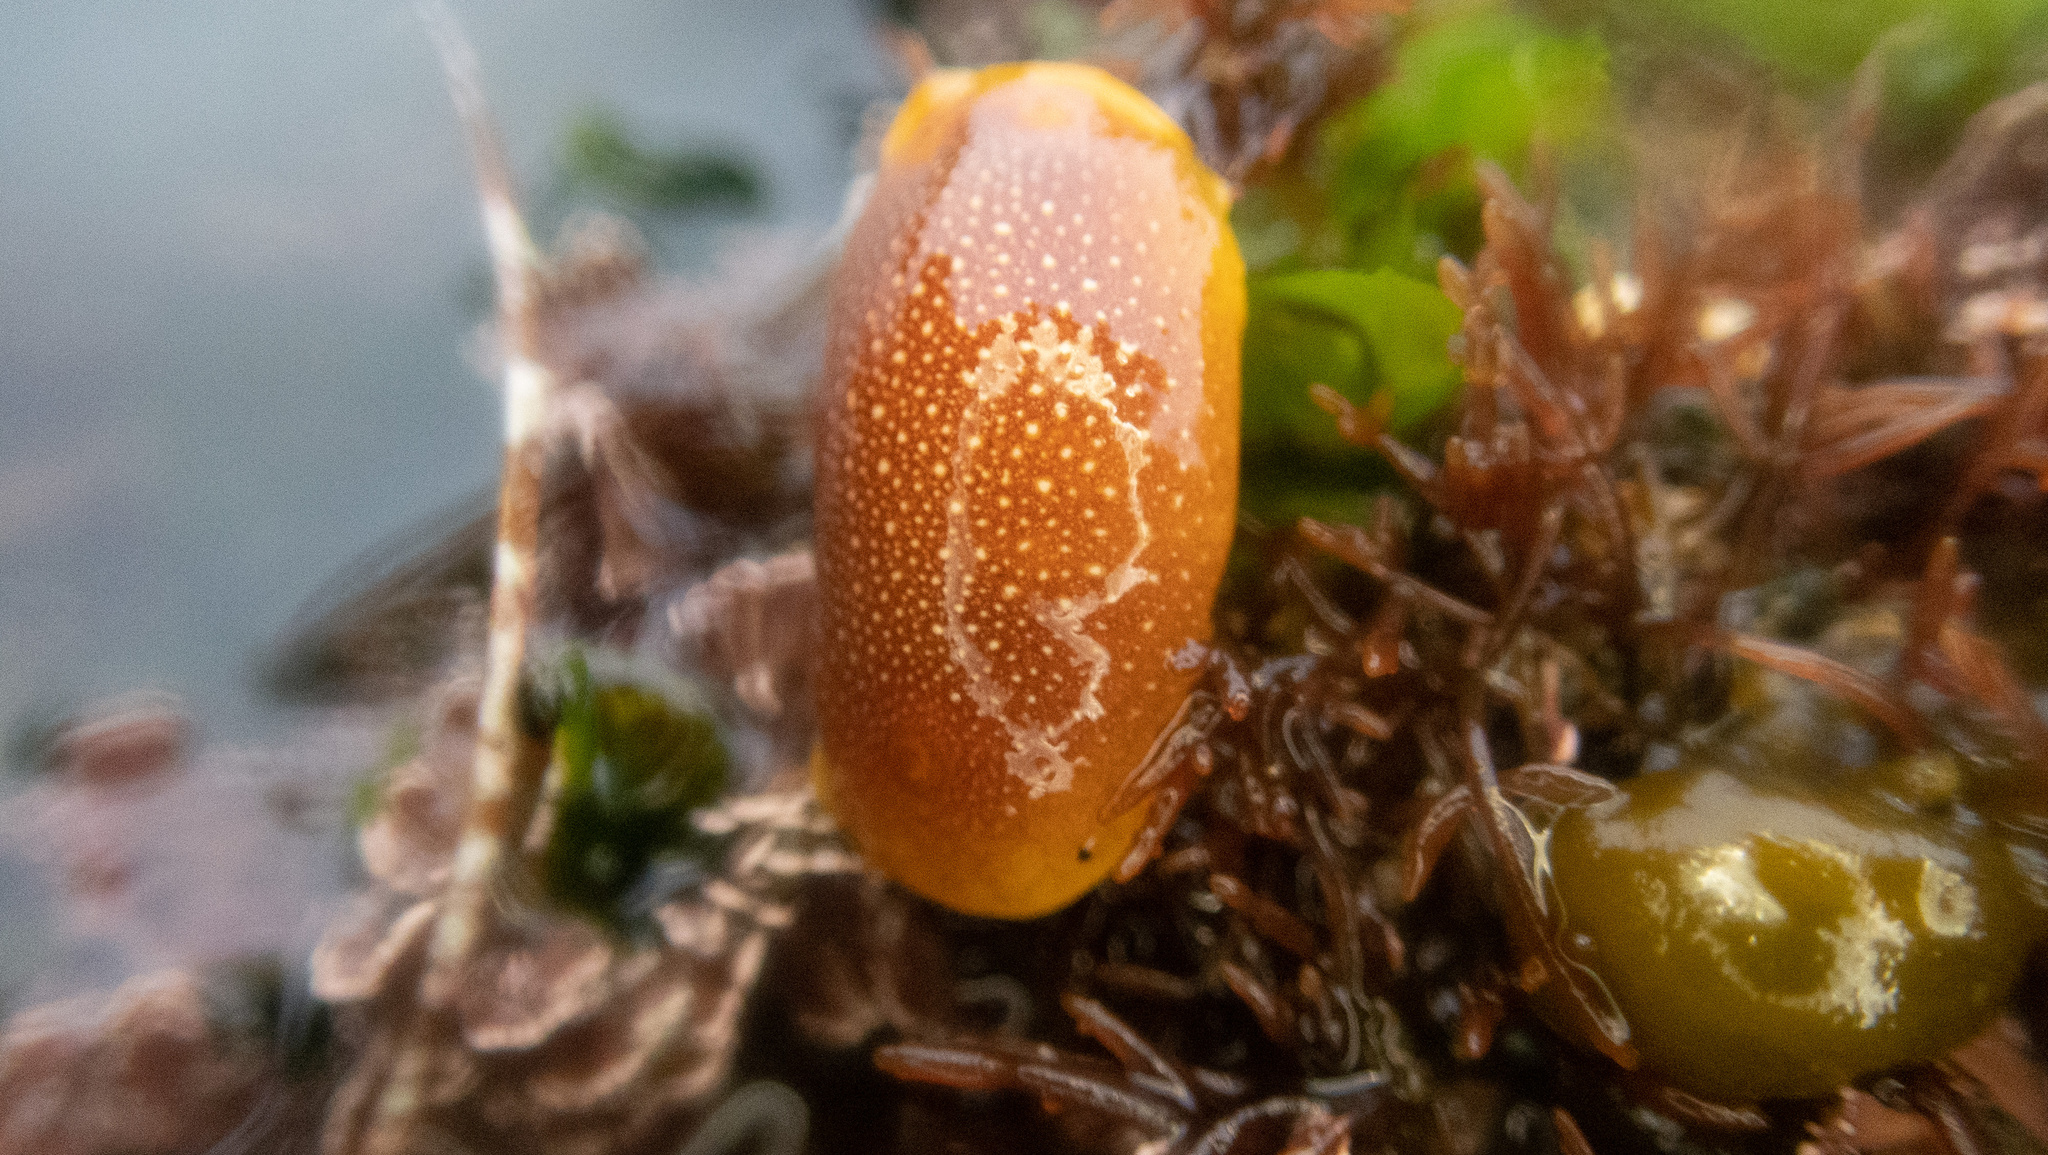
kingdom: Animalia
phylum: Mollusca
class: Gastropoda
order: Nudibranchia
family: Dendrodorididae
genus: Doriopsilla
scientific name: Doriopsilla gemela
